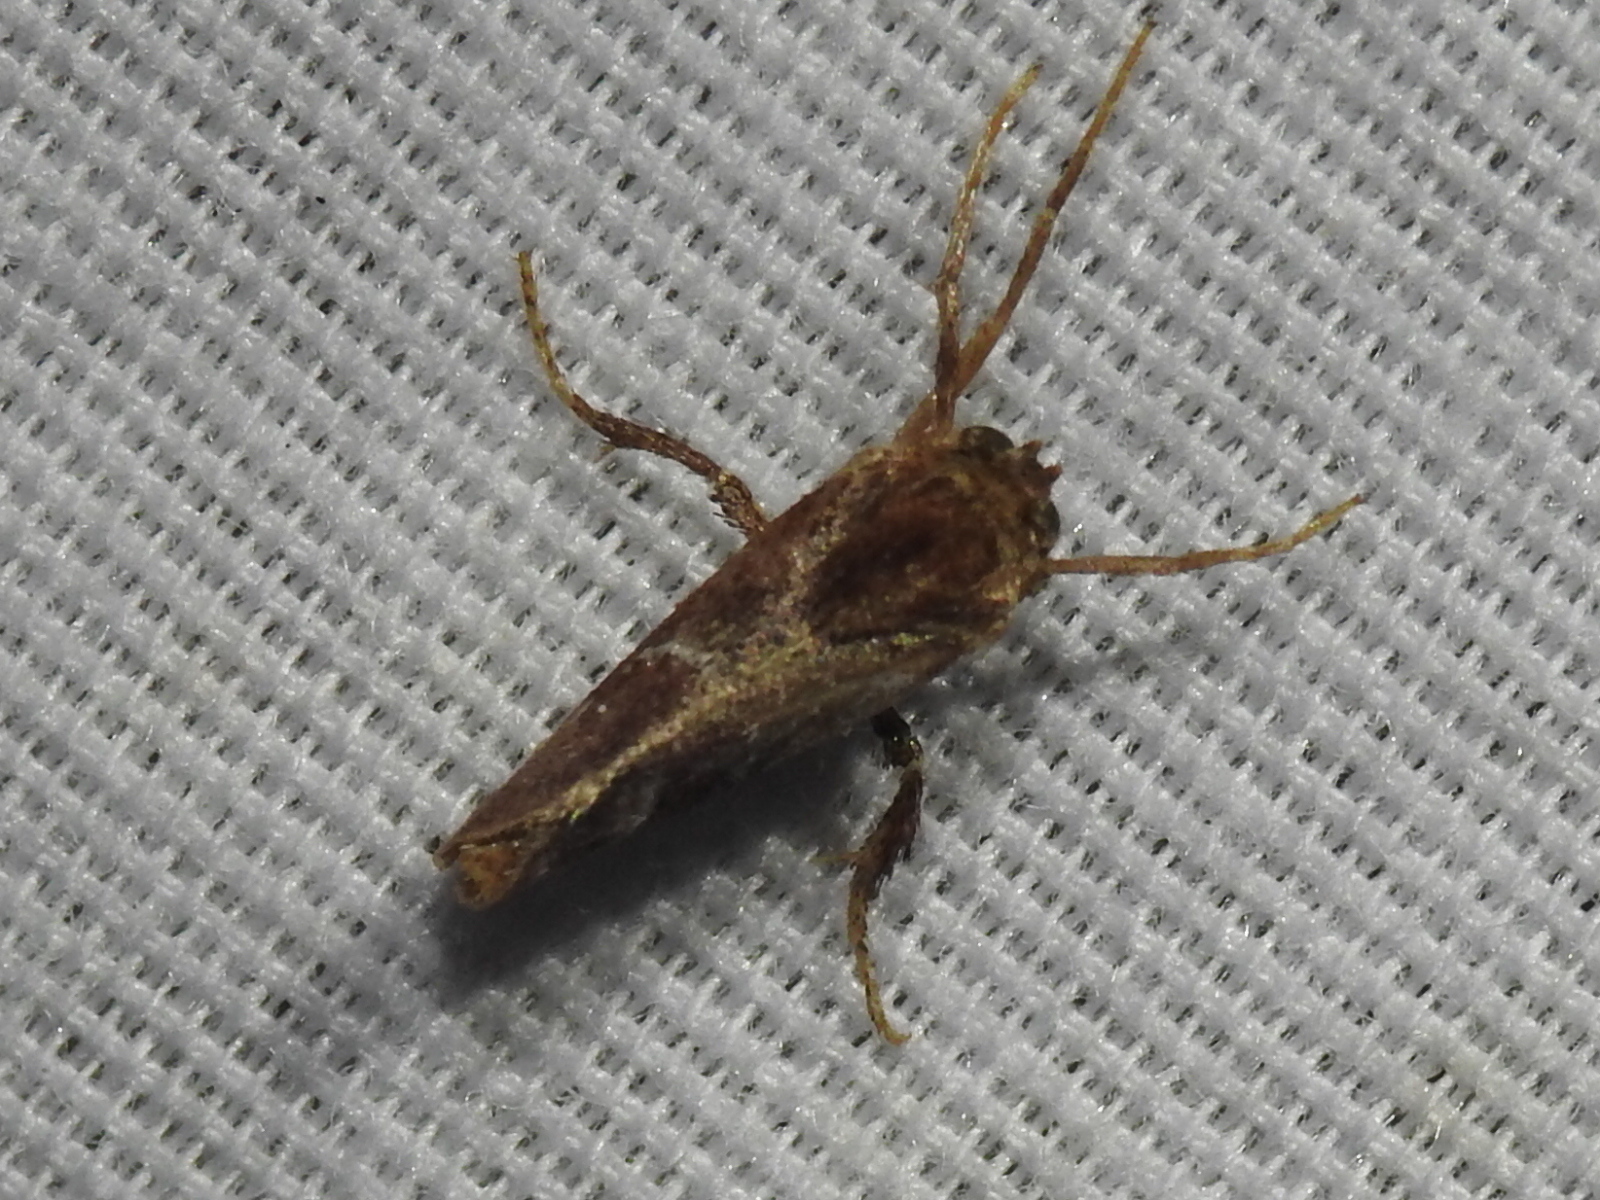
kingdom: Animalia
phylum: Arthropoda
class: Insecta
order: Lepidoptera
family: Limacodidae
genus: Adoneta
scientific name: Adoneta spinuloides
